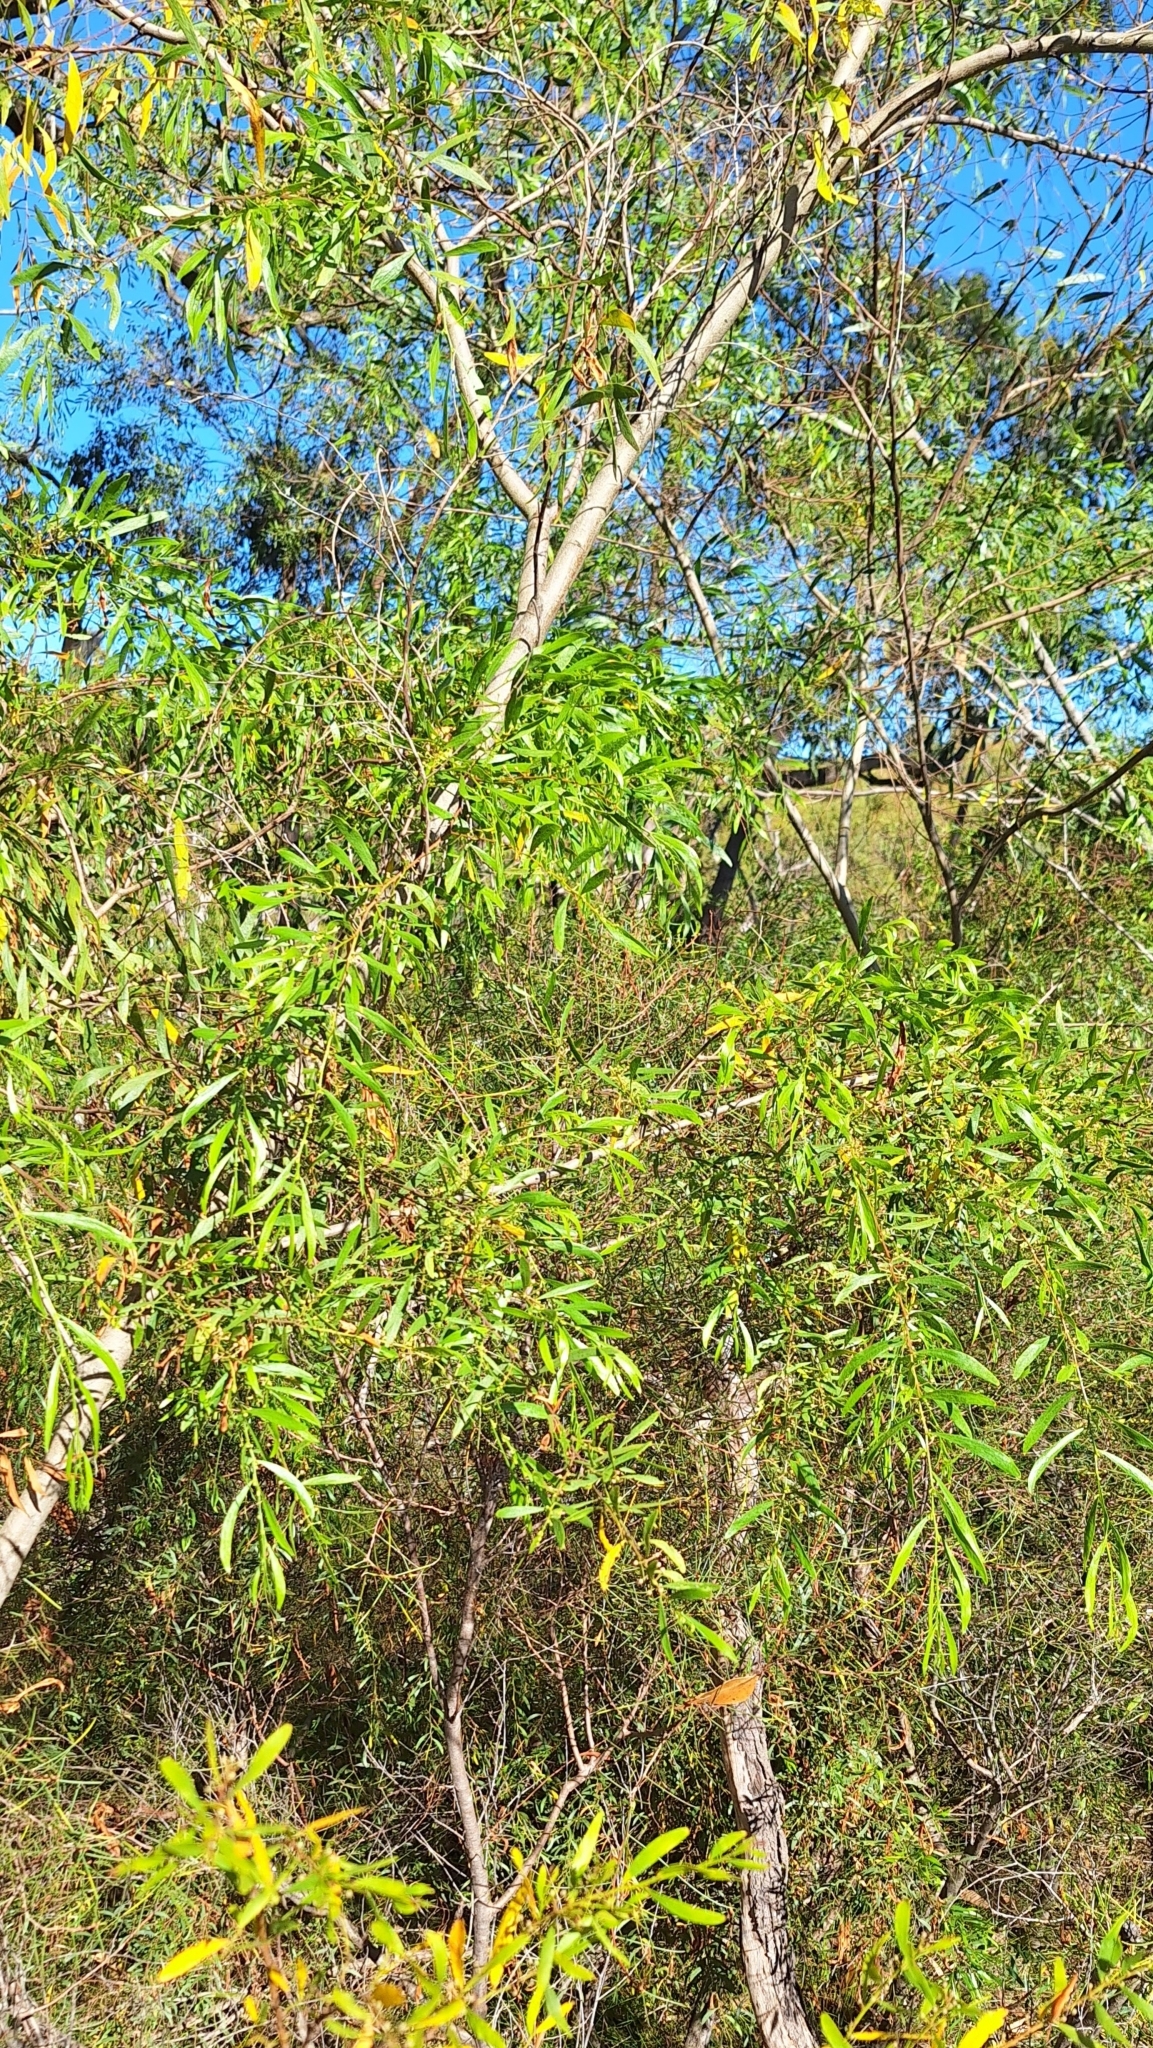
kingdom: Plantae
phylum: Tracheophyta
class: Magnoliopsida
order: Fabales
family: Fabaceae
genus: Acacia
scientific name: Acacia verniciflua
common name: Varnish wattle
